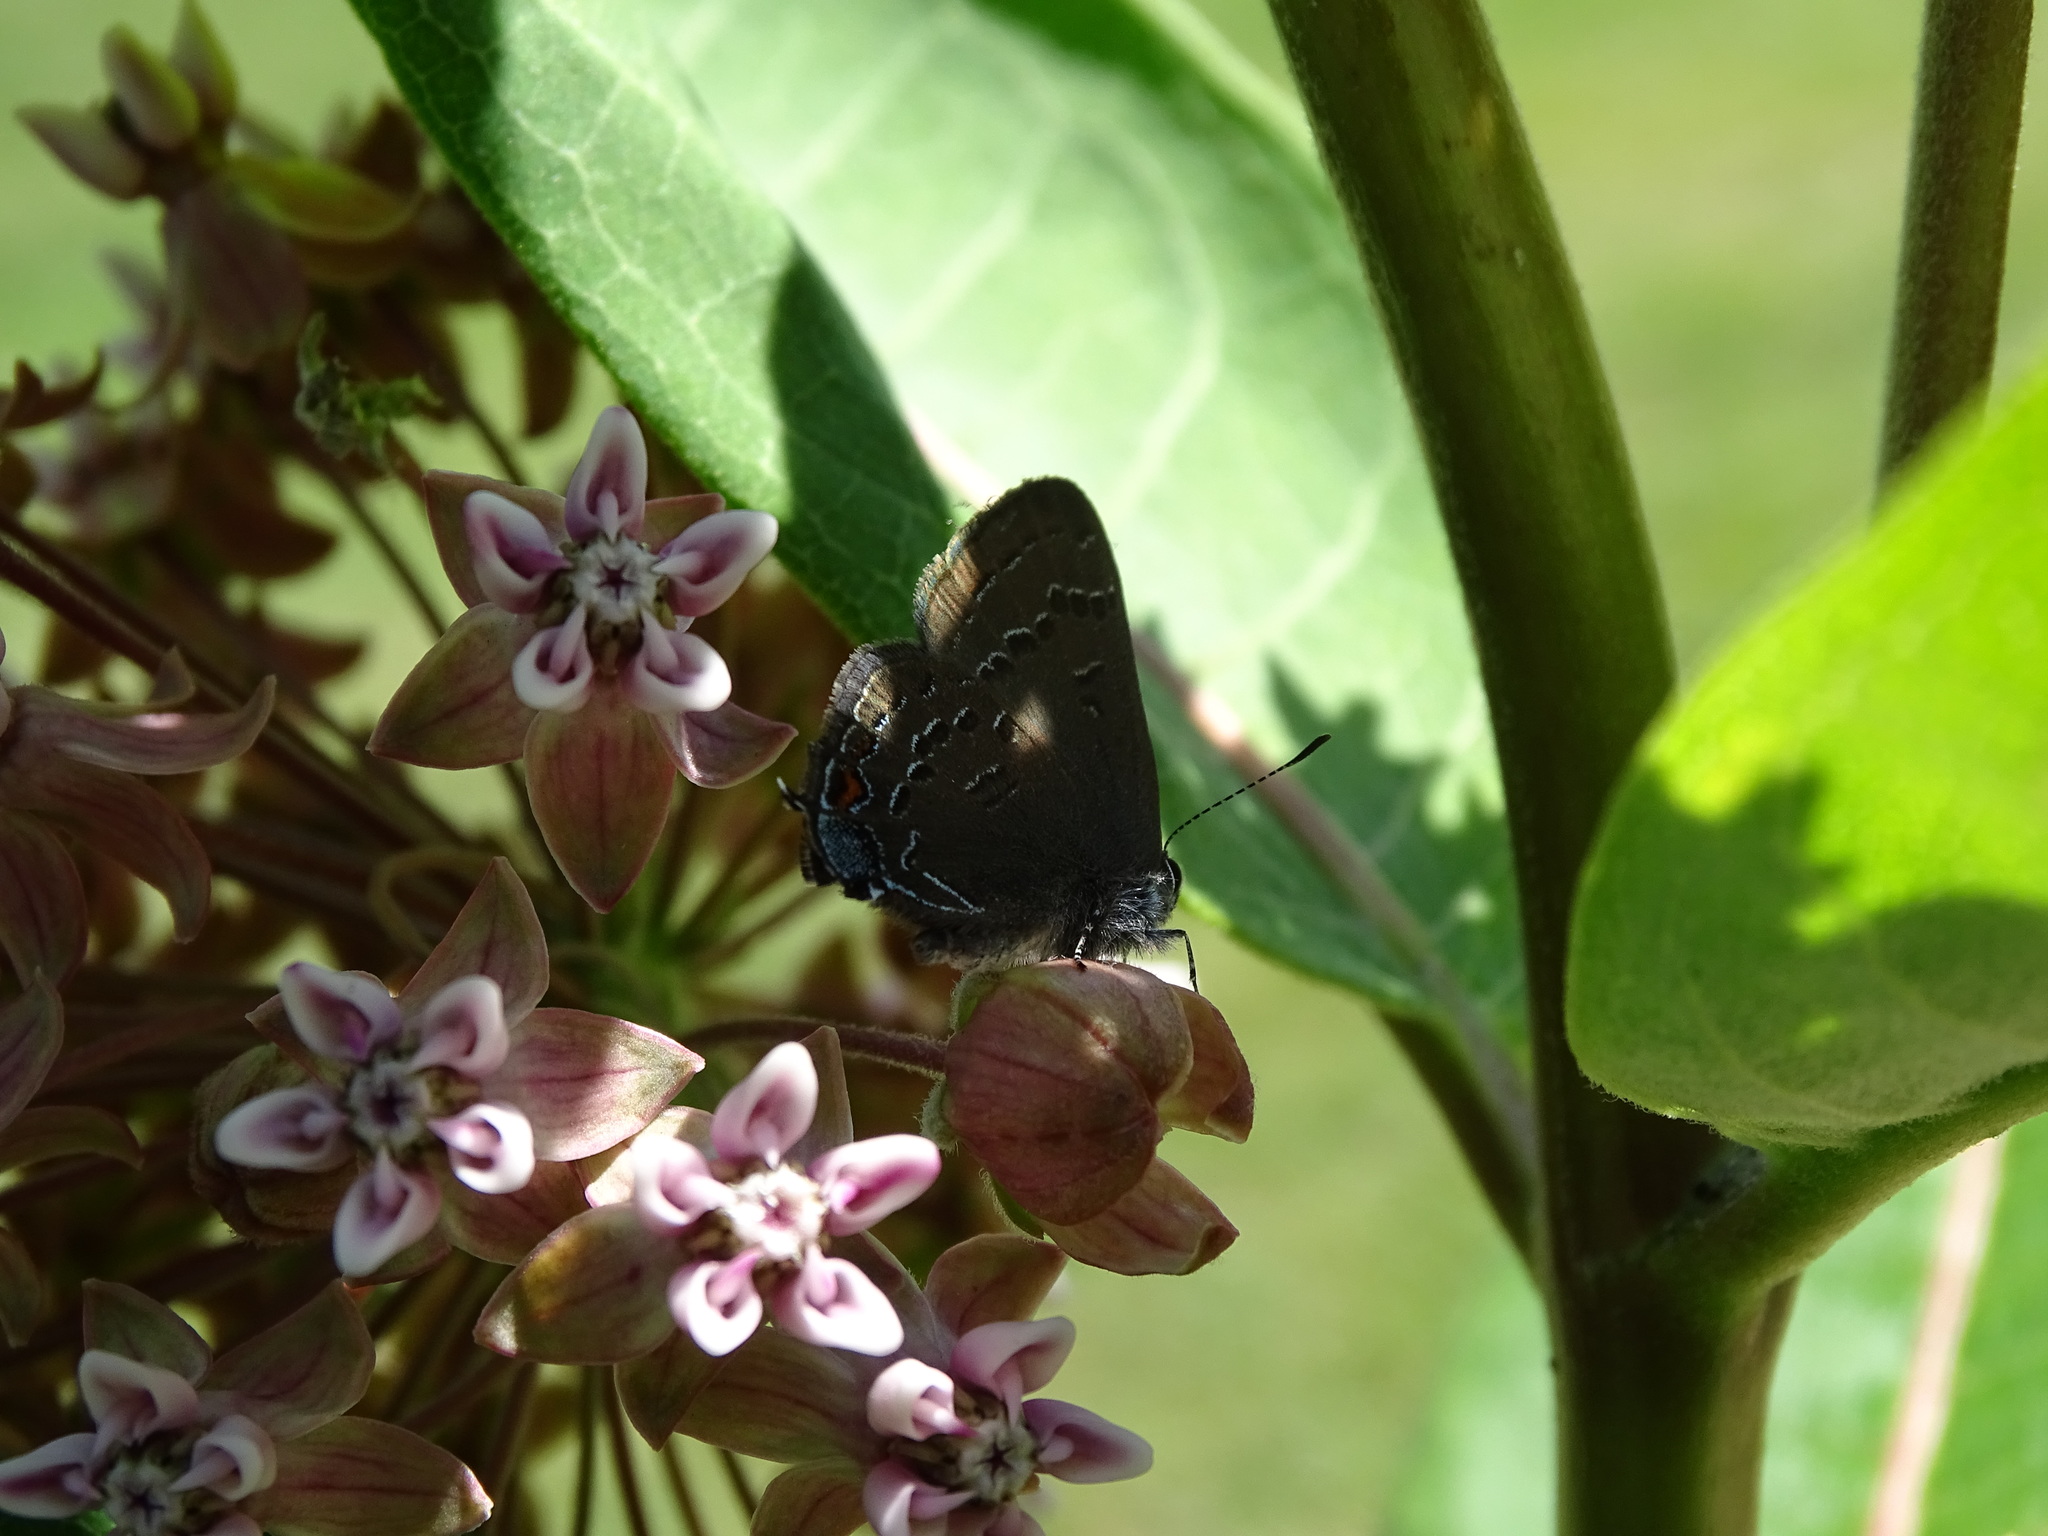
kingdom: Animalia
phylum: Arthropoda
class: Insecta
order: Lepidoptera
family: Lycaenidae
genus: Satyrium
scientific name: Satyrium calanus
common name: Banded hairstreak
